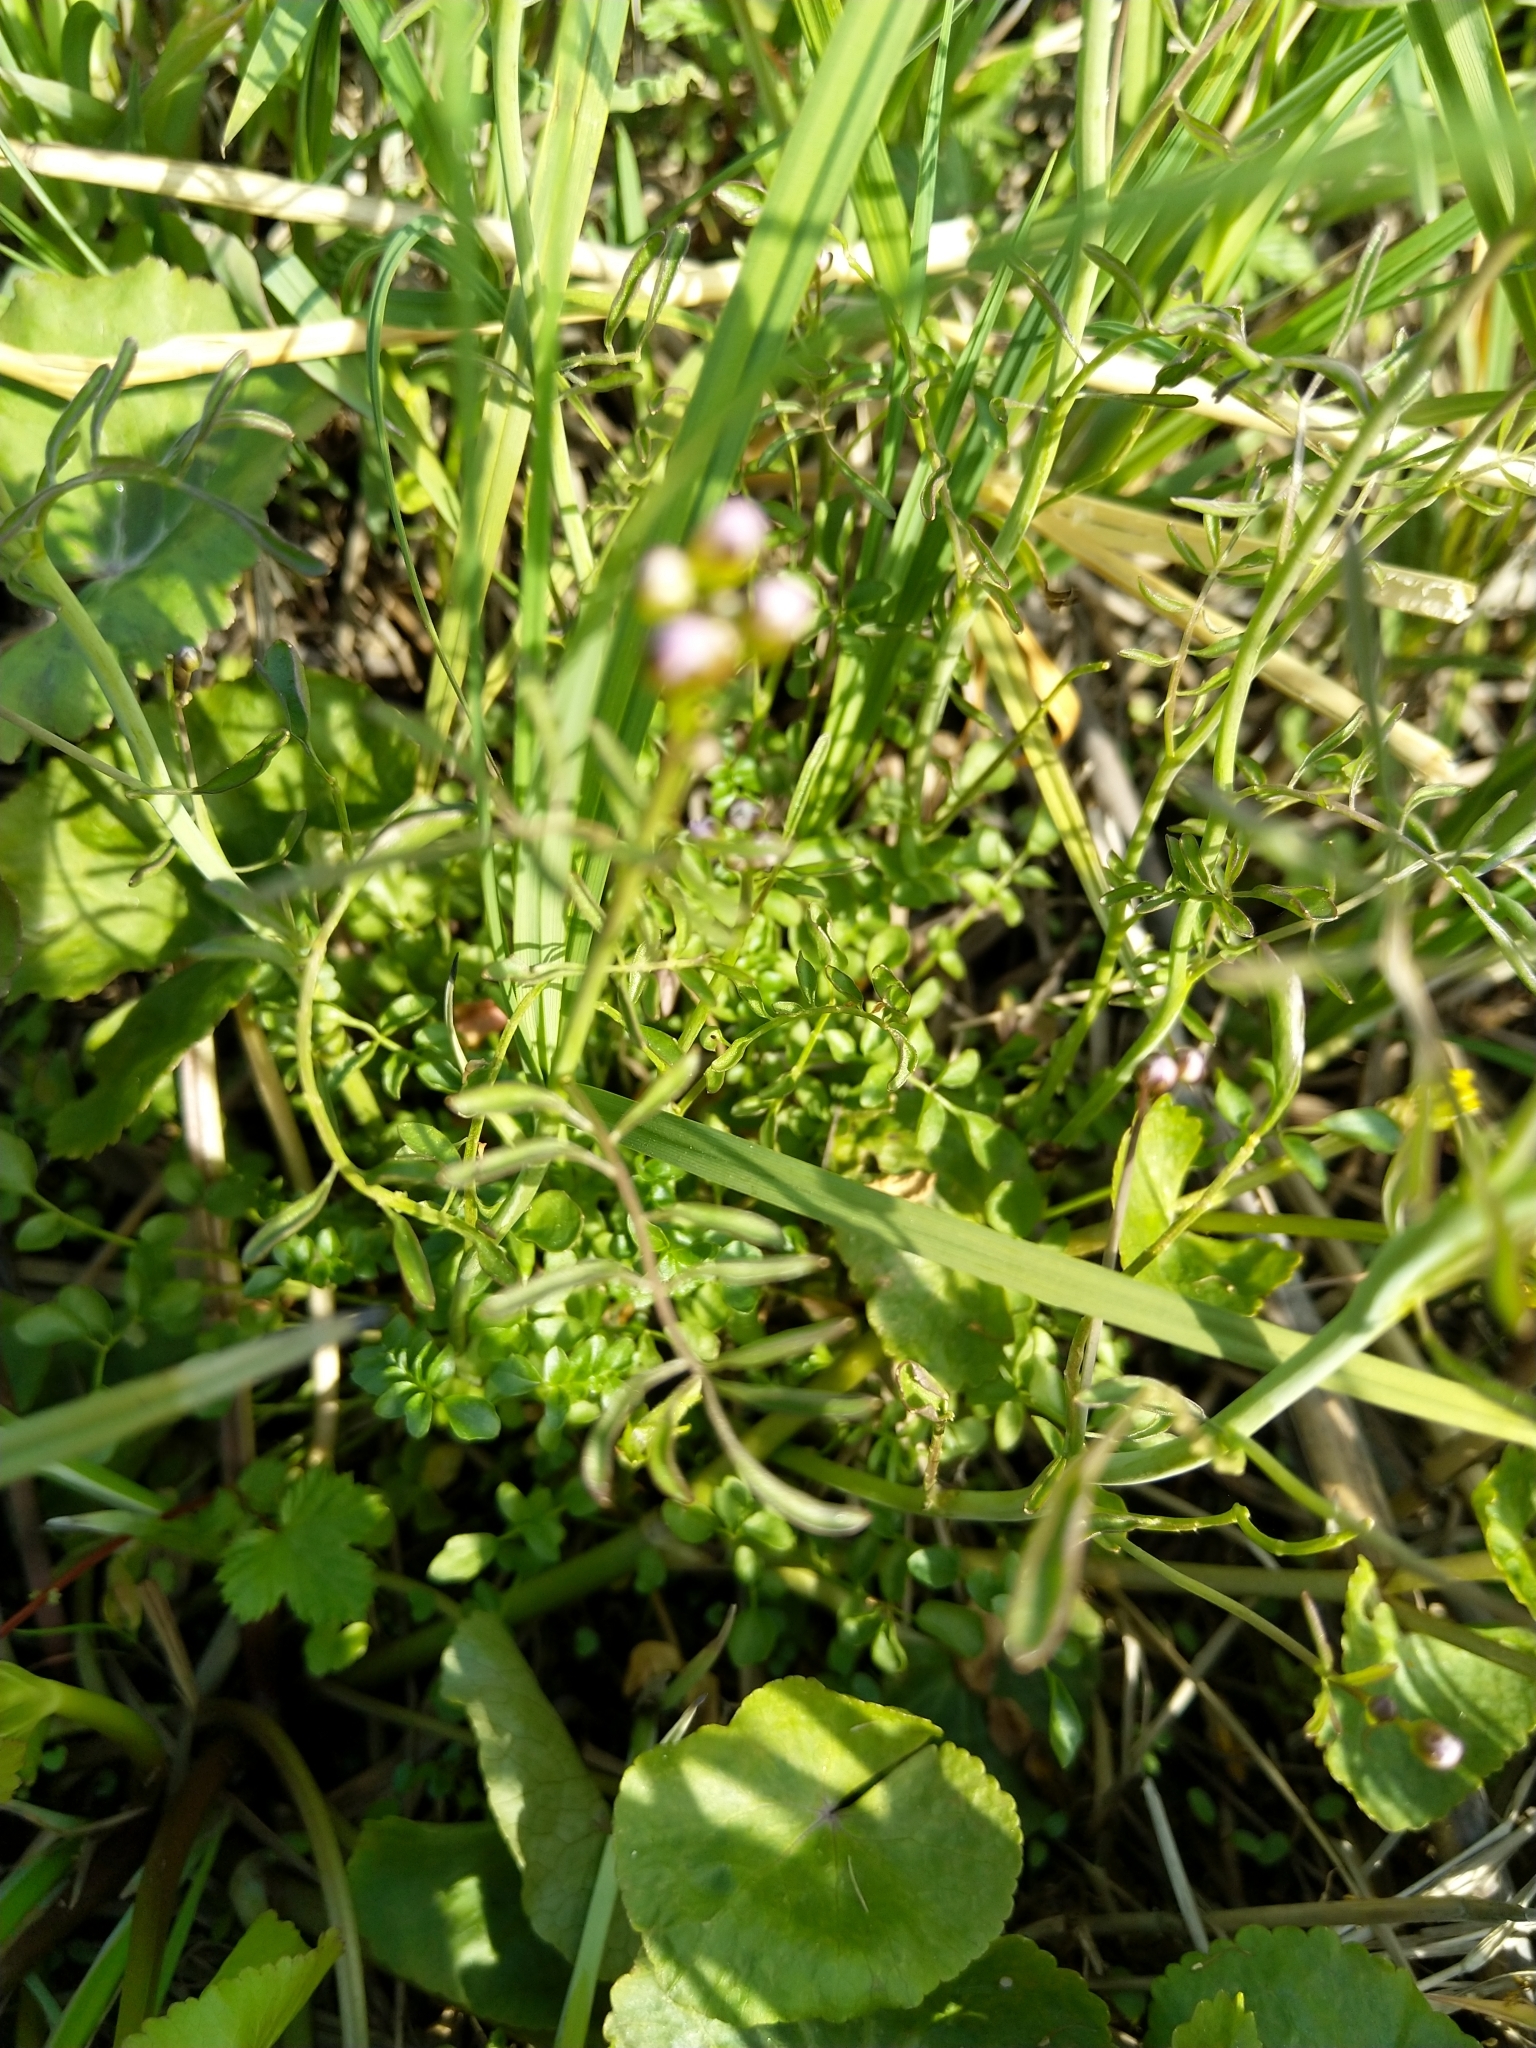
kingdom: Plantae
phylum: Tracheophyta
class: Magnoliopsida
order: Brassicales
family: Brassicaceae
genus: Cardamine
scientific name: Cardamine pratensis
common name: Cuckoo flower
